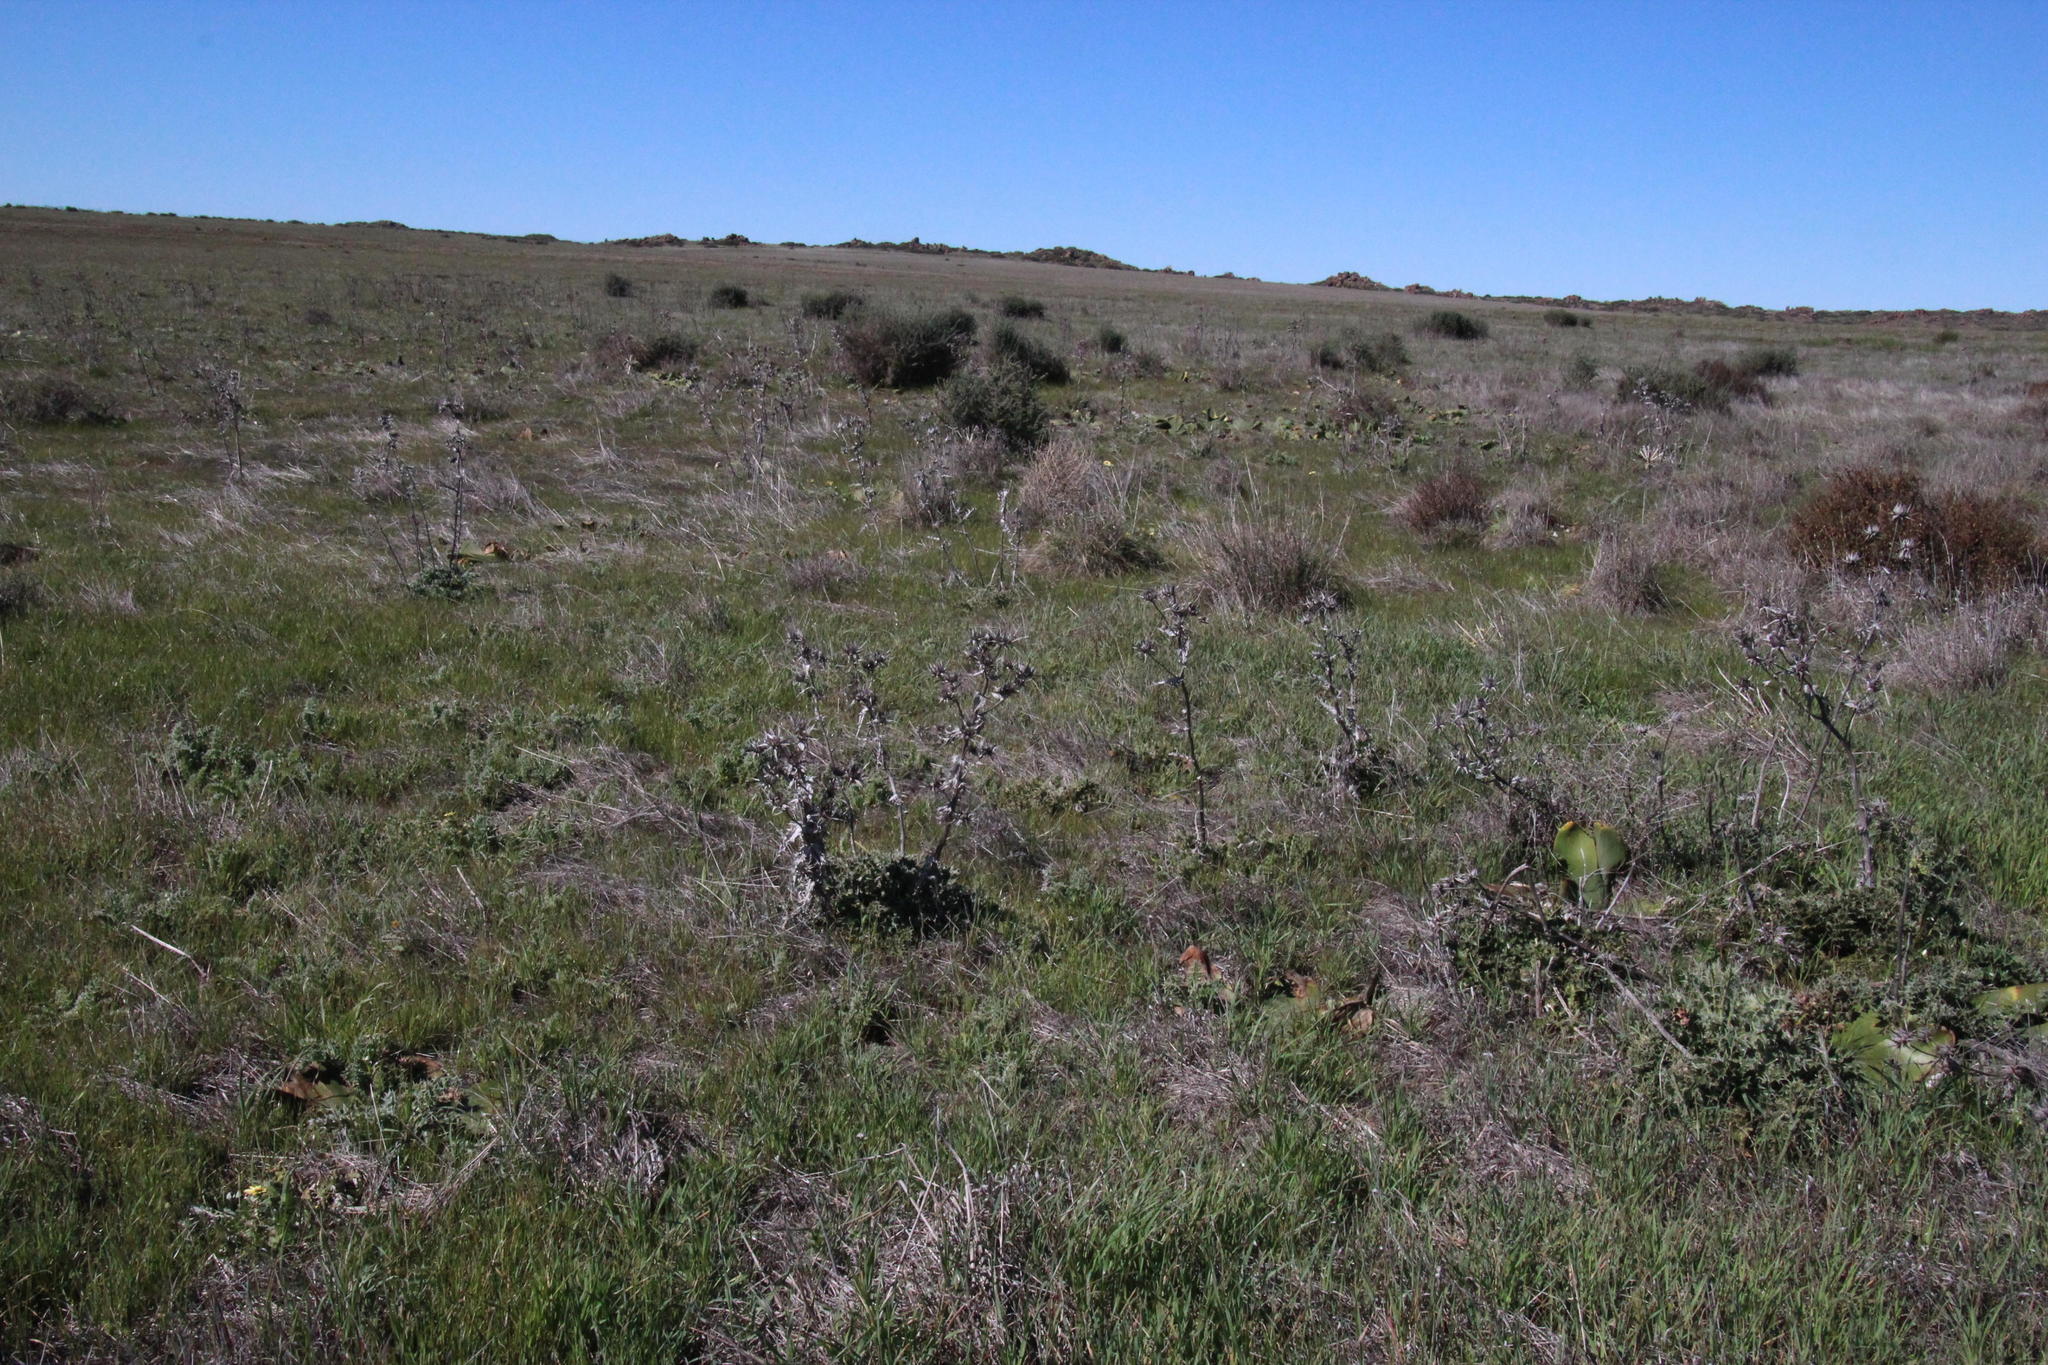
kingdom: Plantae
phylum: Tracheophyta
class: Magnoliopsida
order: Asterales
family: Asteraceae
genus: Berkheya
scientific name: Berkheya glabrata
